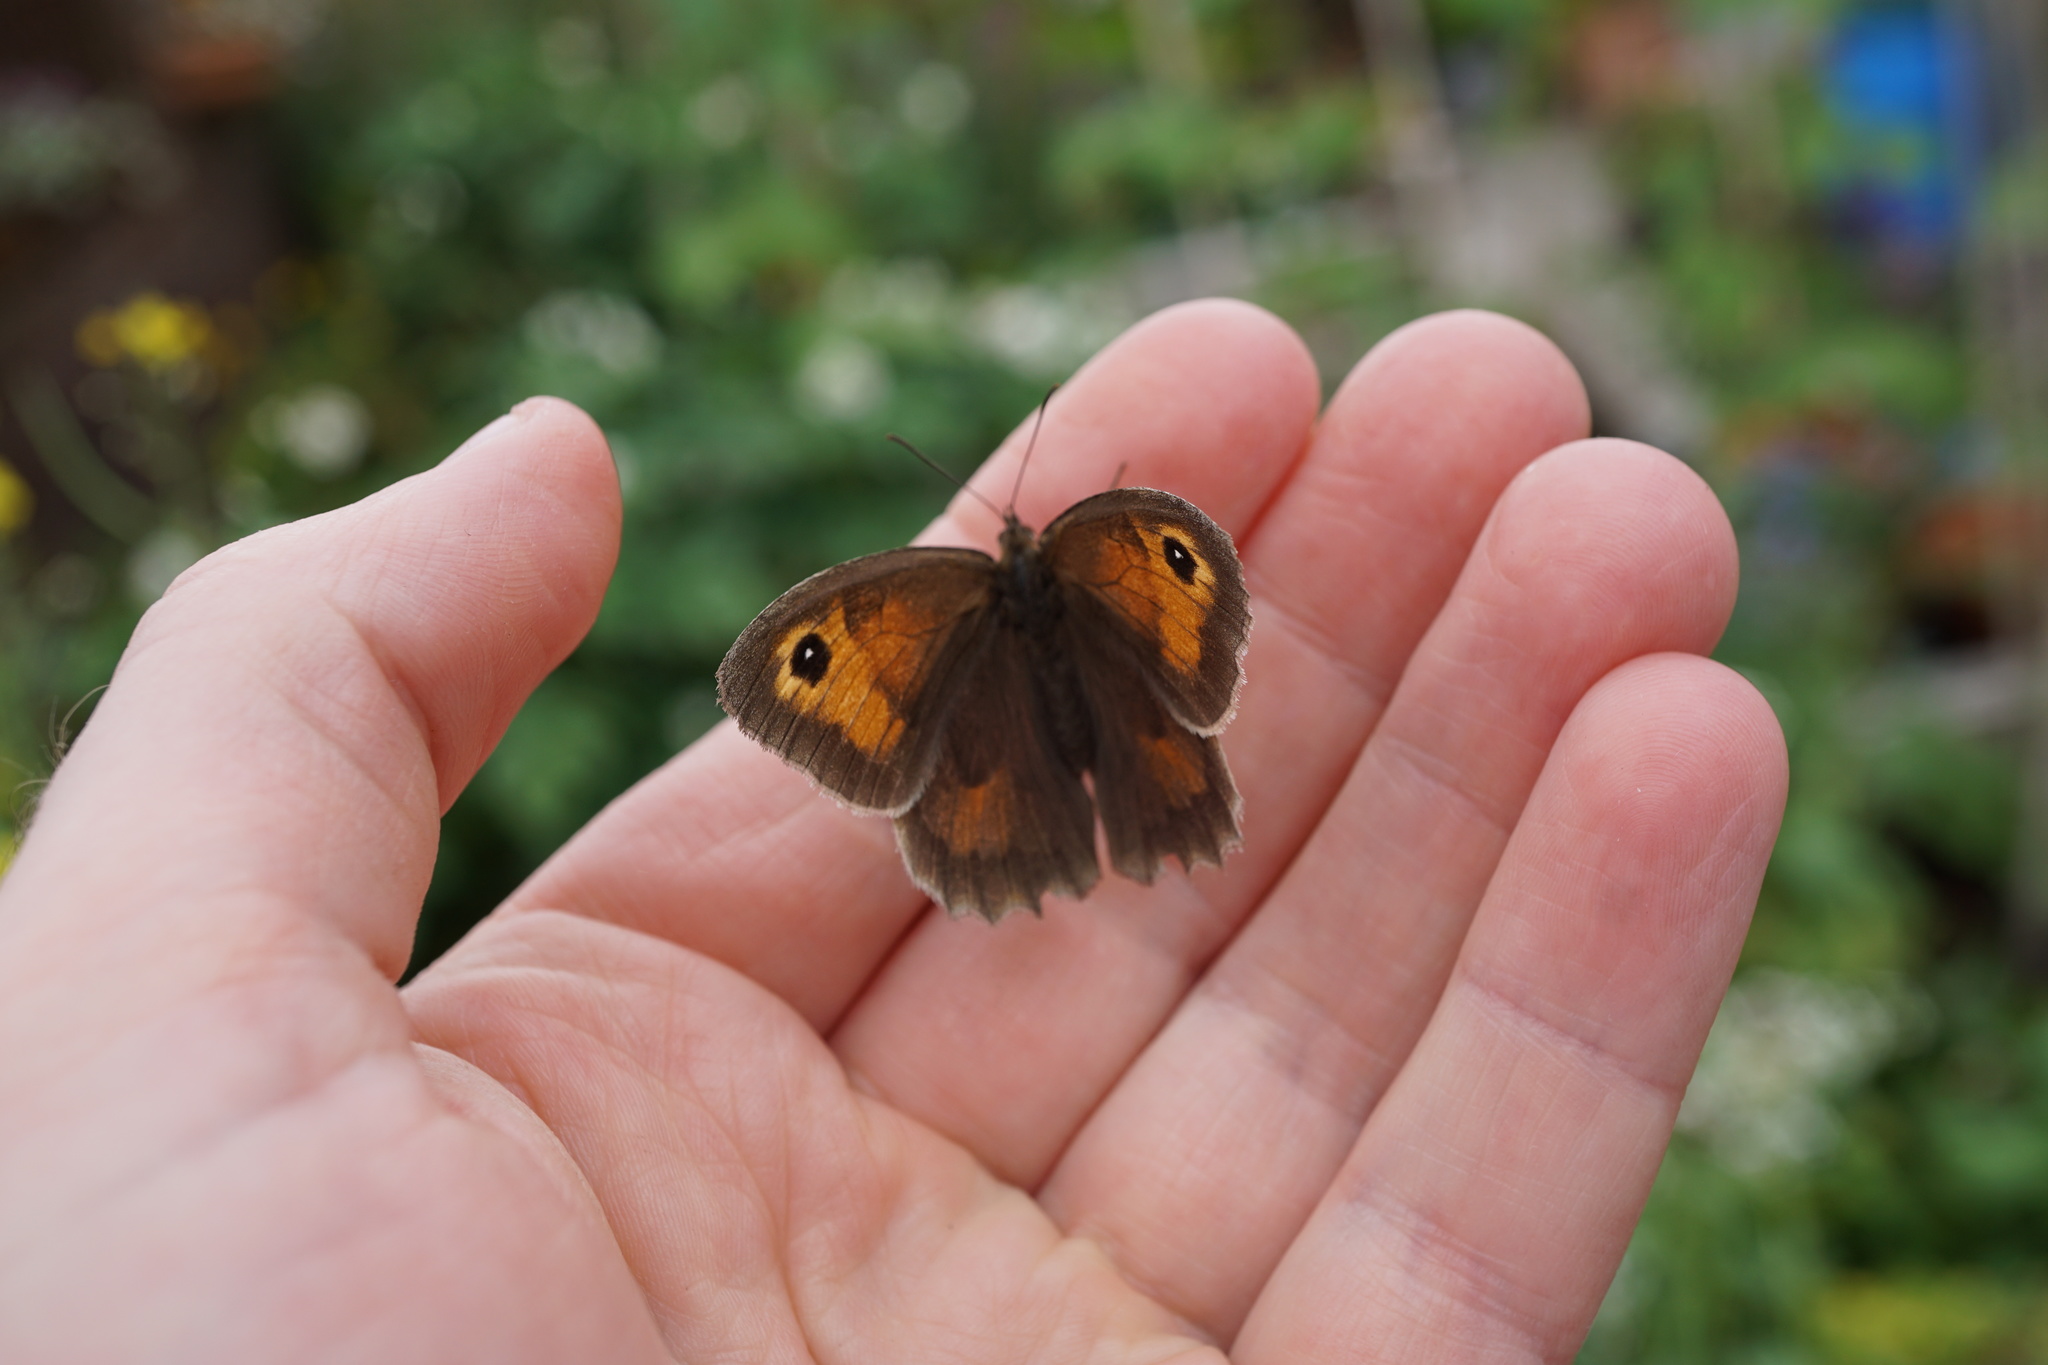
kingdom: Animalia
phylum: Arthropoda
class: Insecta
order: Lepidoptera
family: Nymphalidae
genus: Maniola
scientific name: Maniola jurtina
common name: Meadow brown
